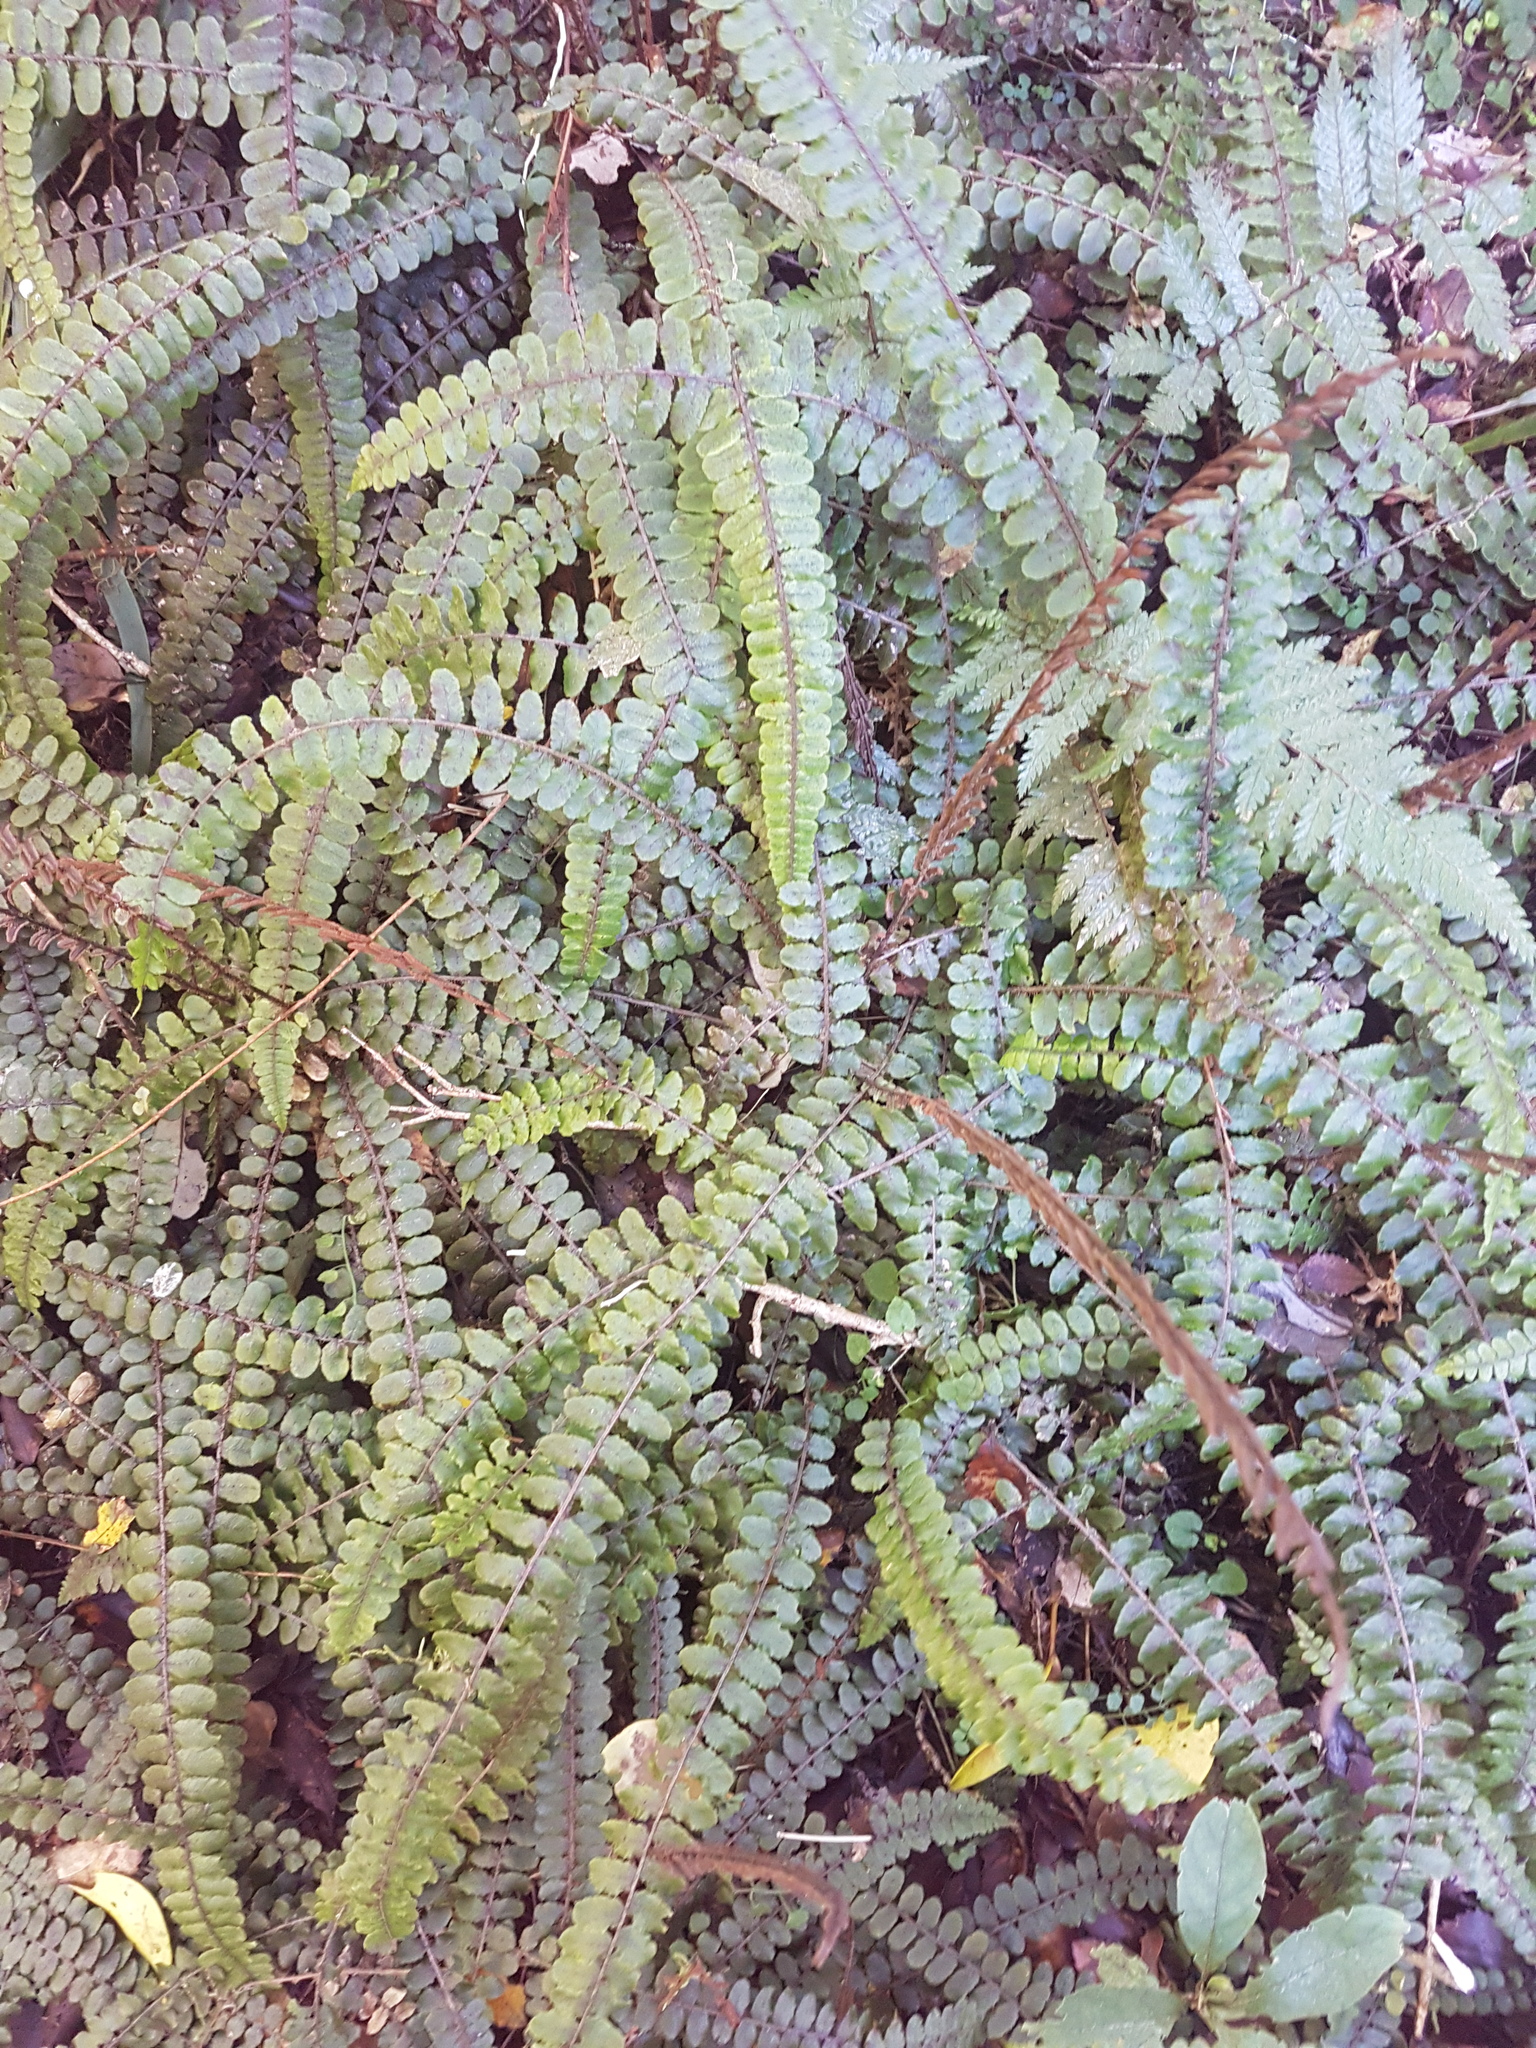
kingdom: Plantae
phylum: Tracheophyta
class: Polypodiopsida
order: Polypodiales
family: Blechnaceae
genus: Cranfillia
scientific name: Cranfillia fluviatilis
